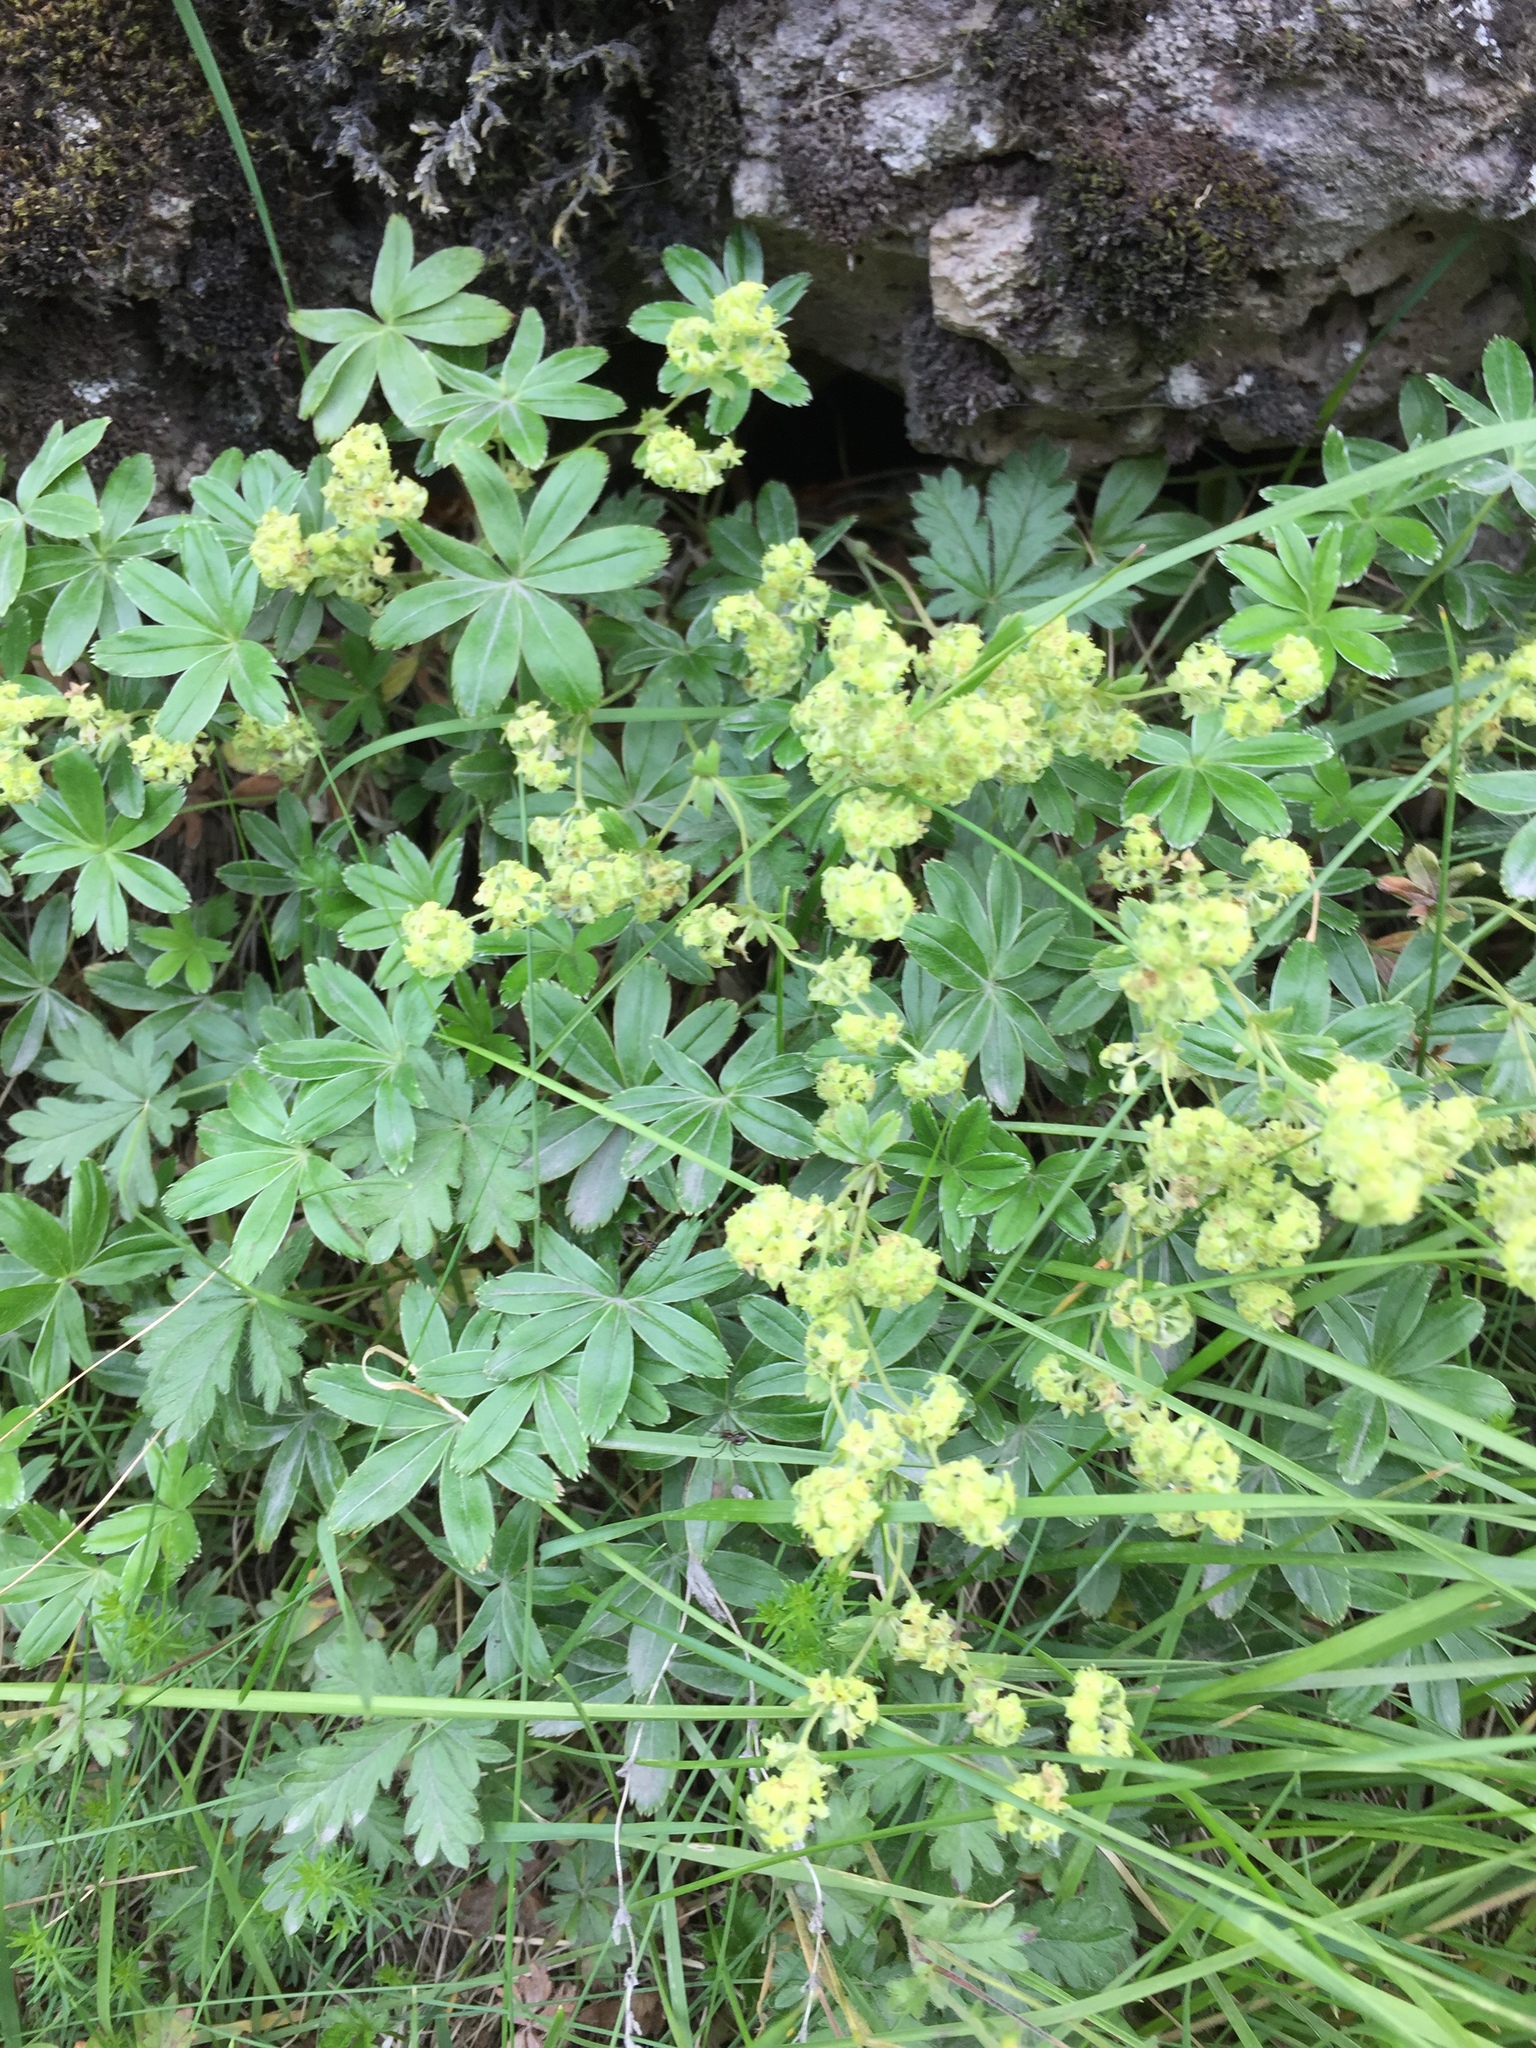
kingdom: Plantae
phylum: Tracheophyta
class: Magnoliopsida
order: Rosales
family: Rosaceae
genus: Alchemilla
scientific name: Alchemilla alpina
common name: Alpine lady's-mantle
